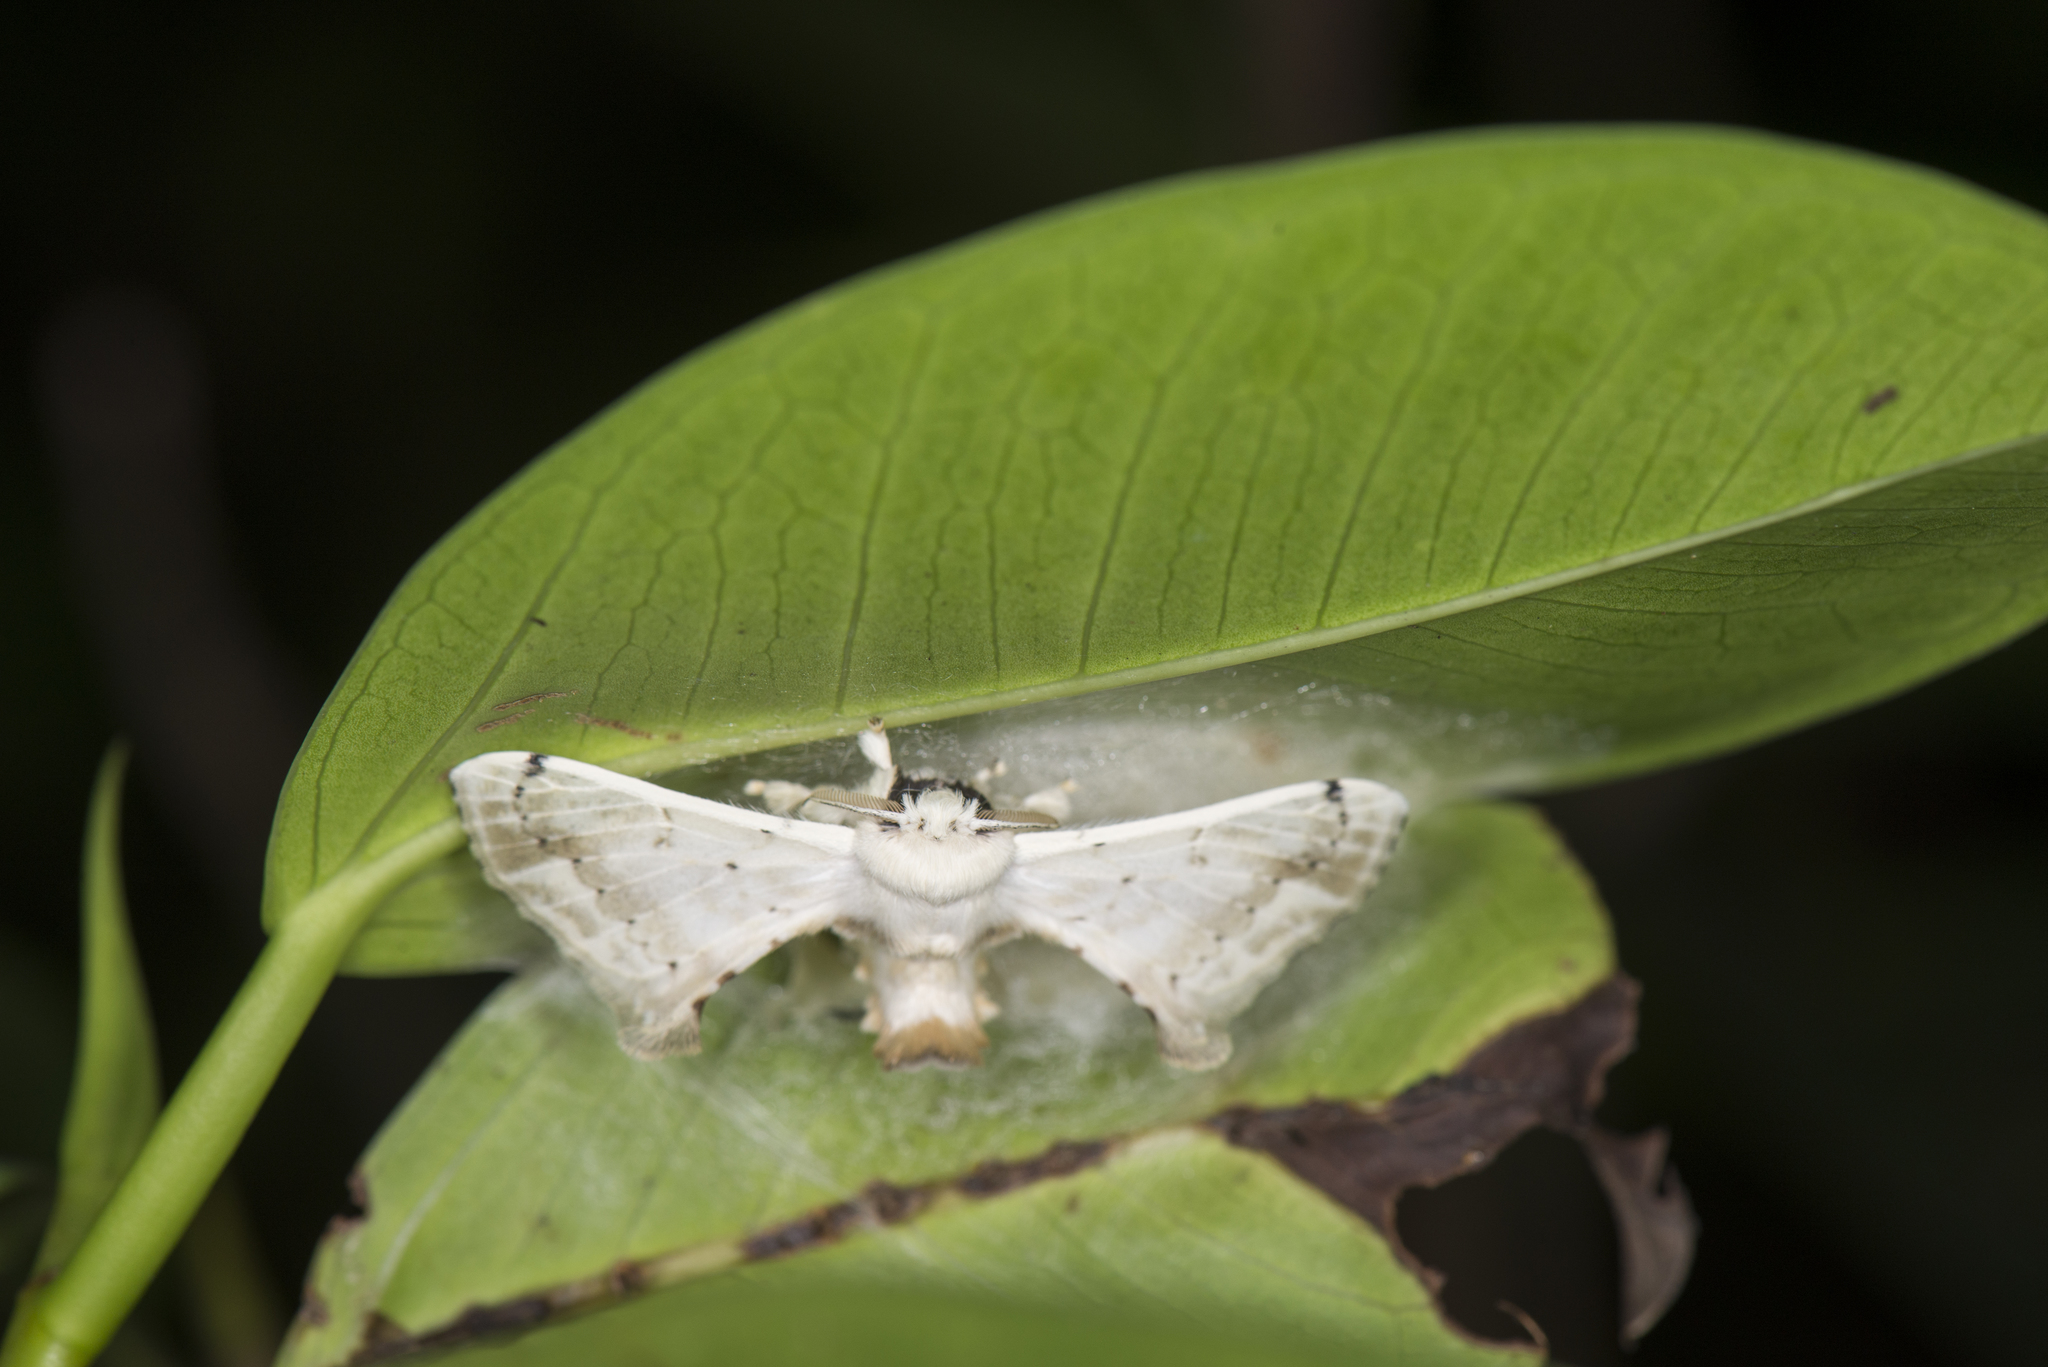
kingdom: Animalia
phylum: Arthropoda
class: Insecta
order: Lepidoptera
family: Bombycidae
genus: Ernolatia
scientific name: Ernolatia moorei
